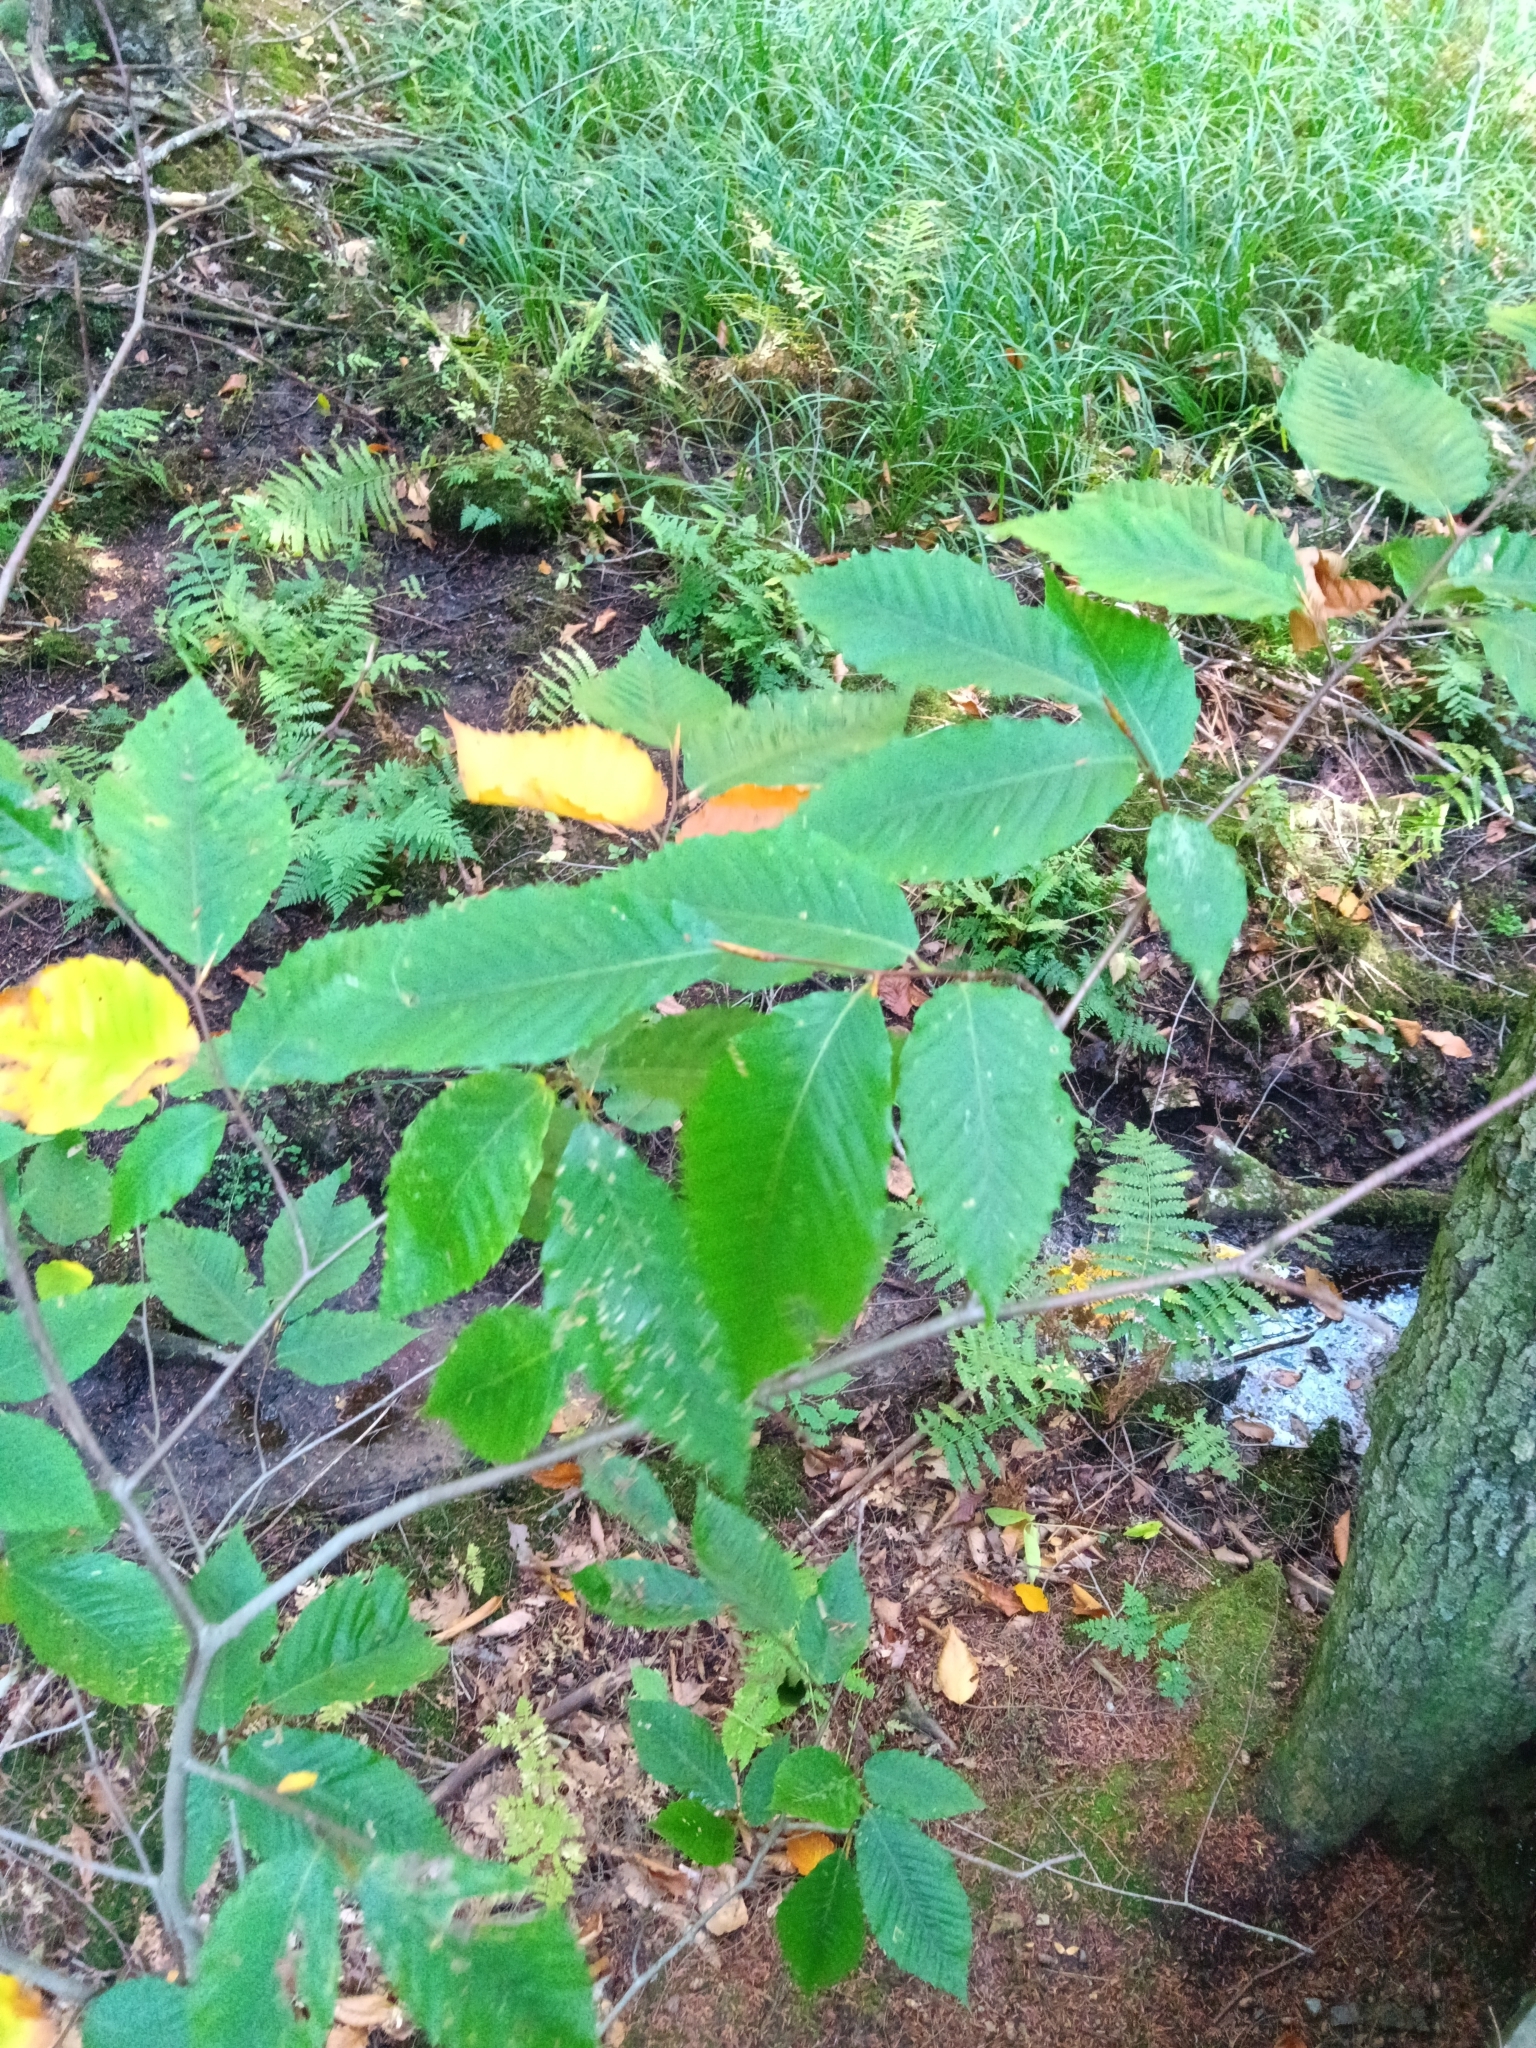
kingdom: Plantae
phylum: Tracheophyta
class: Magnoliopsida
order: Fagales
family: Fagaceae
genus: Fagus
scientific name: Fagus grandifolia
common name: American beech
